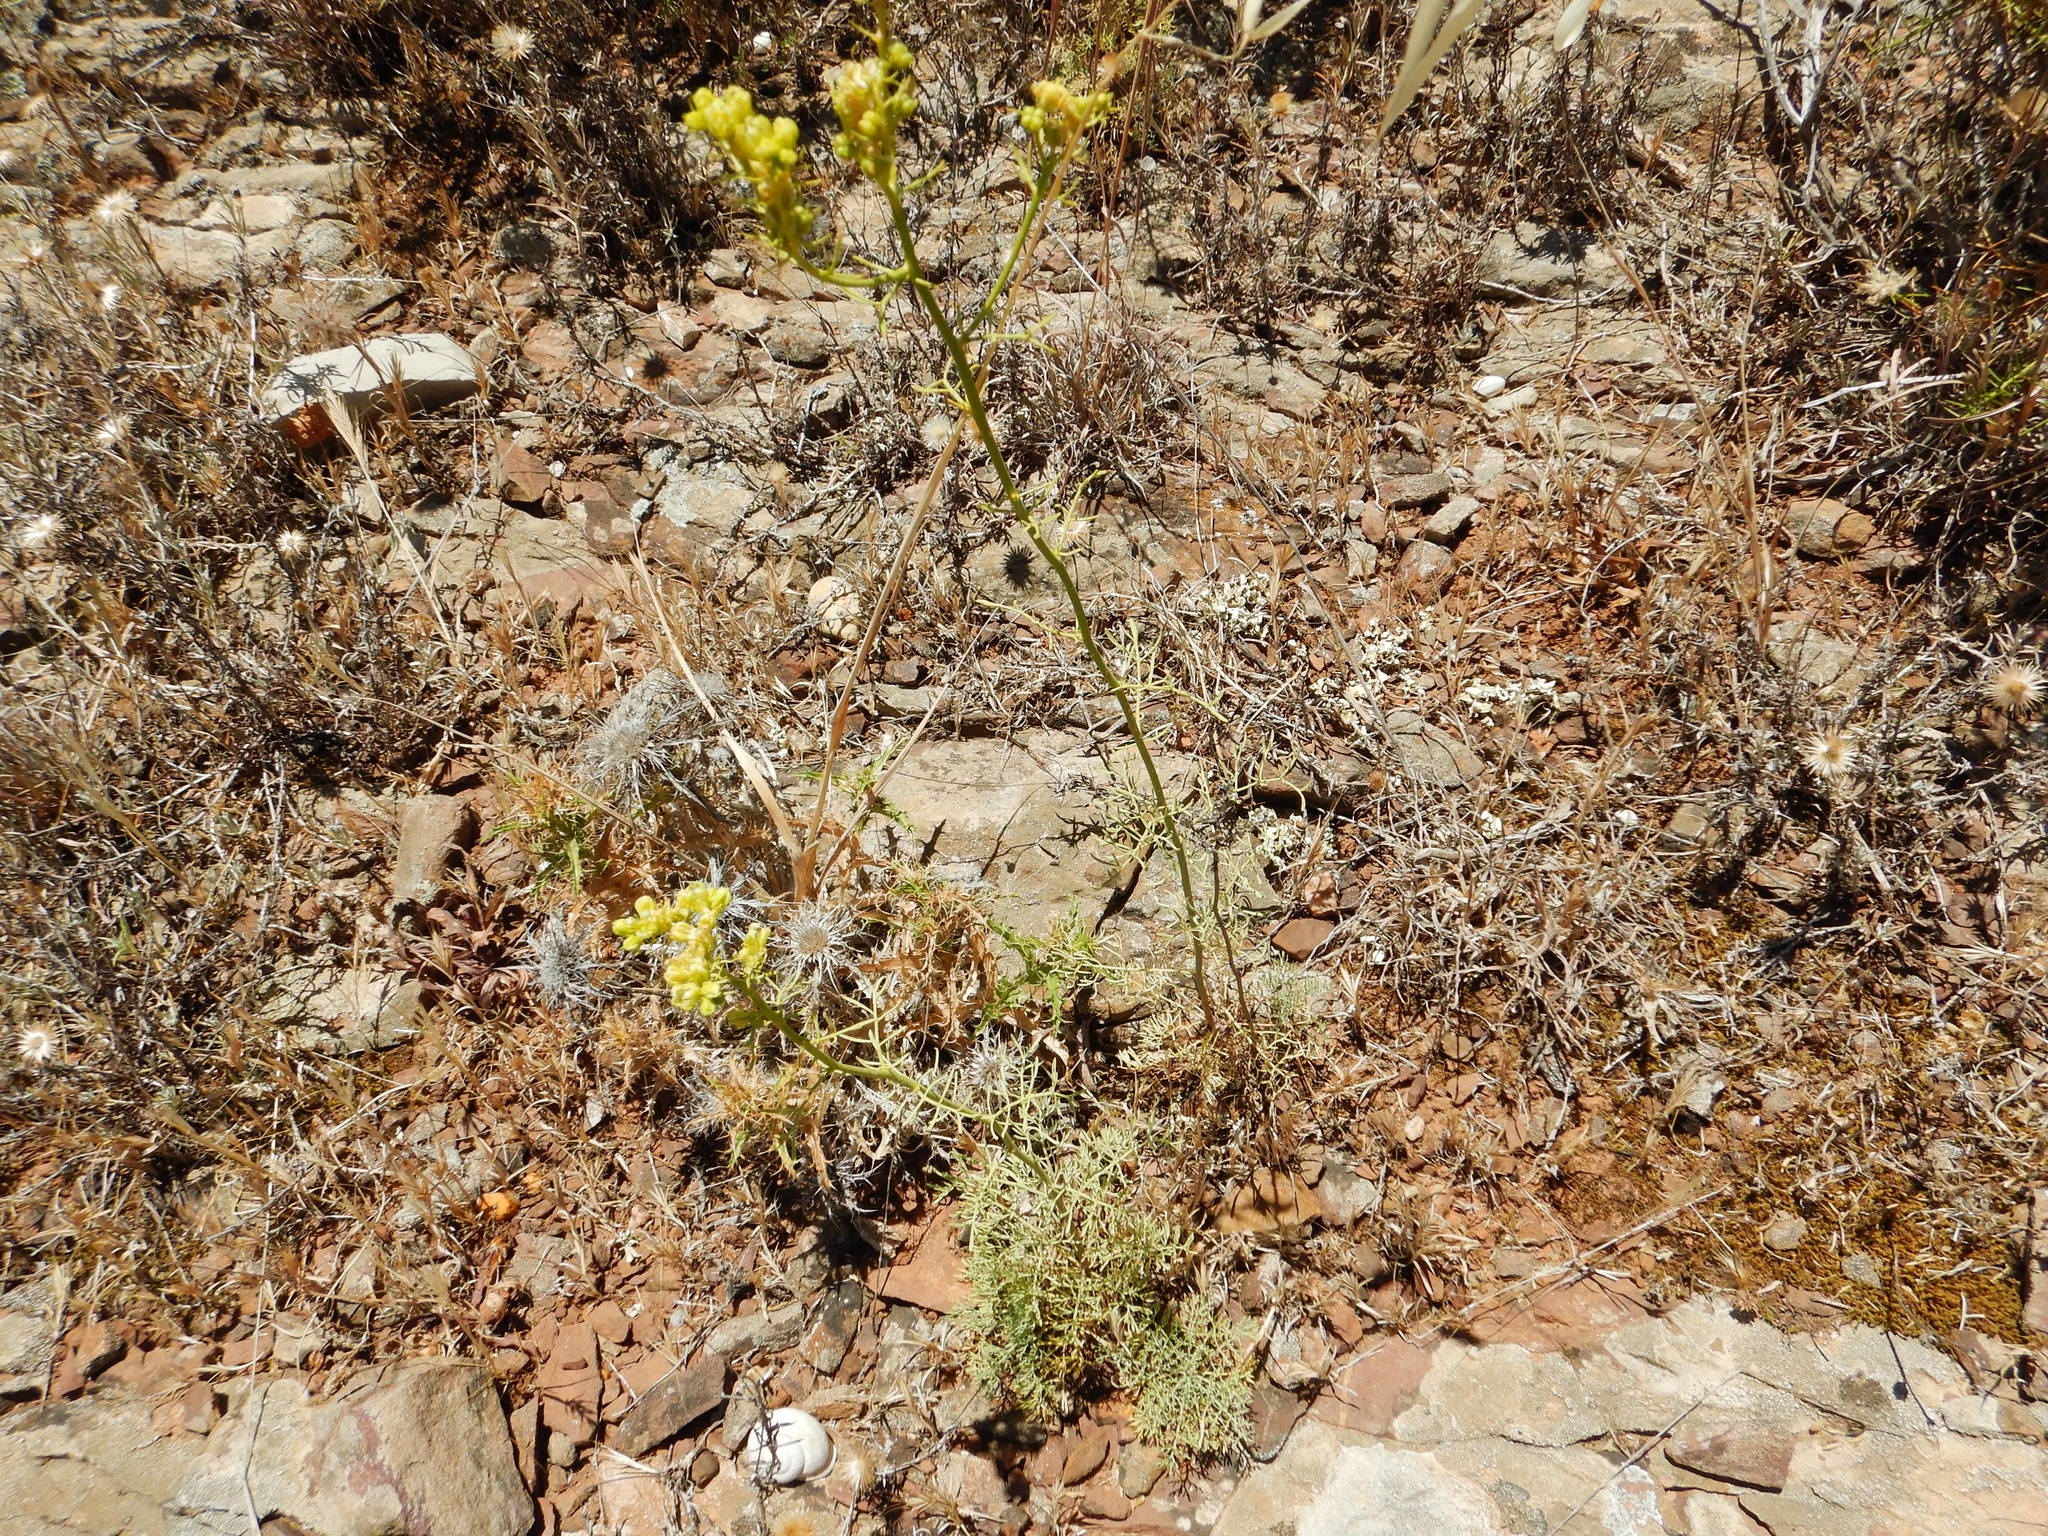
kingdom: Plantae
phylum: Tracheophyta
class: Magnoliopsida
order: Sapindales
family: Rutaceae
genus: Ruta
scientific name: Ruta montana
